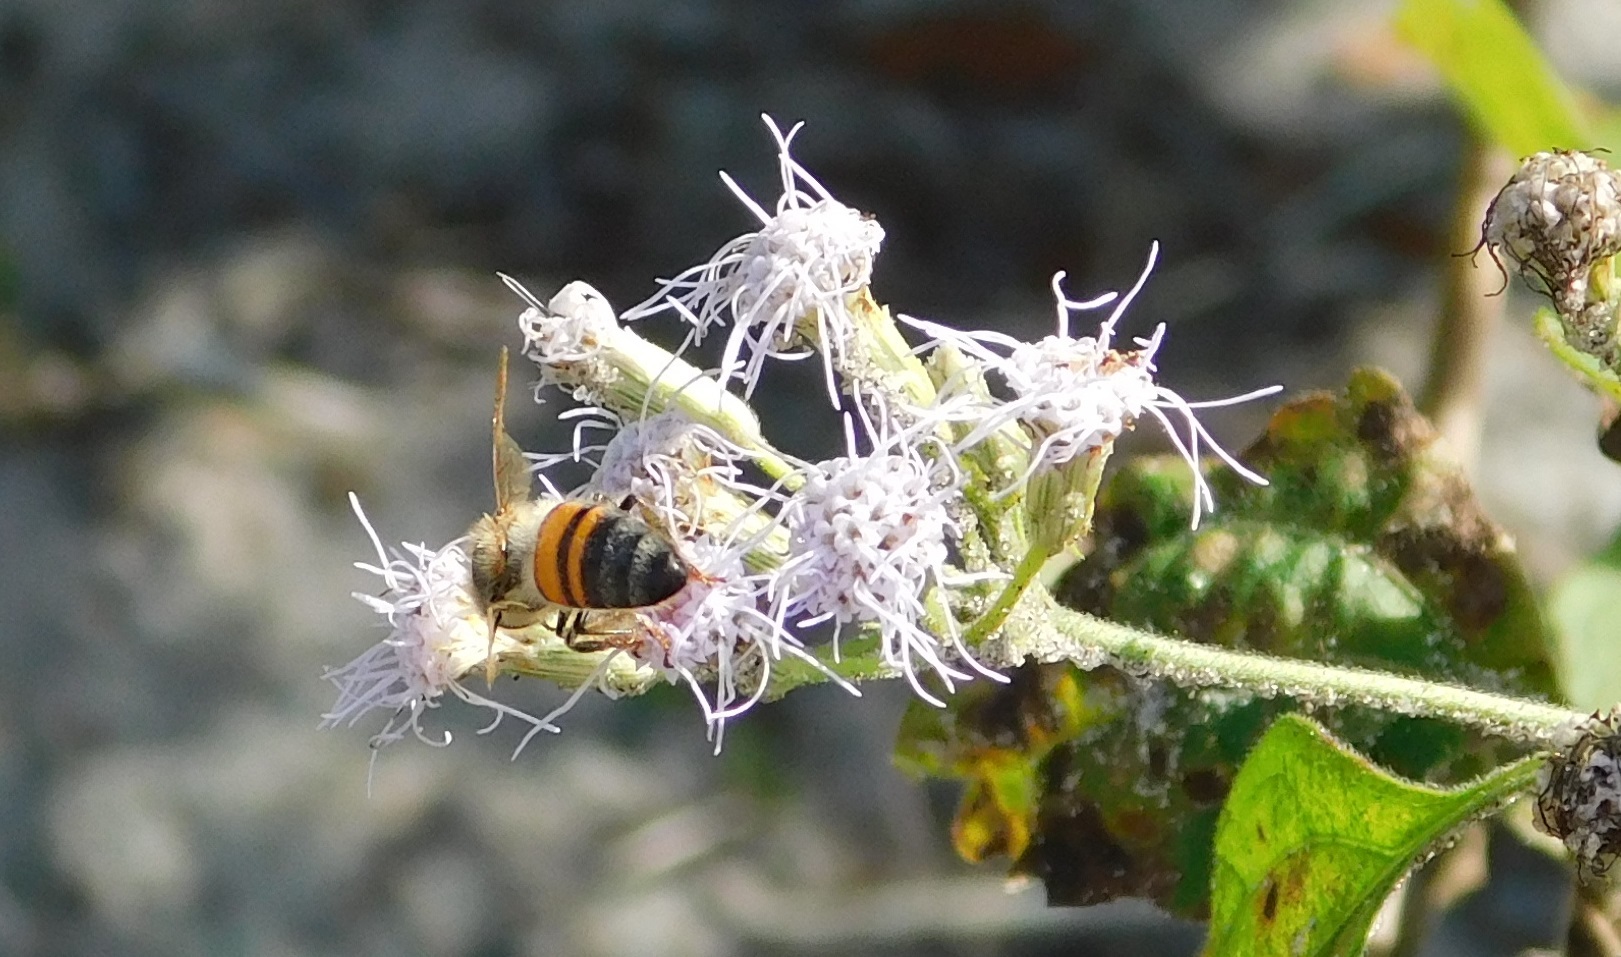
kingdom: Animalia
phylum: Arthropoda
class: Insecta
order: Hymenoptera
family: Apidae
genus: Apis
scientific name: Apis mellifera
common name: Honey bee
